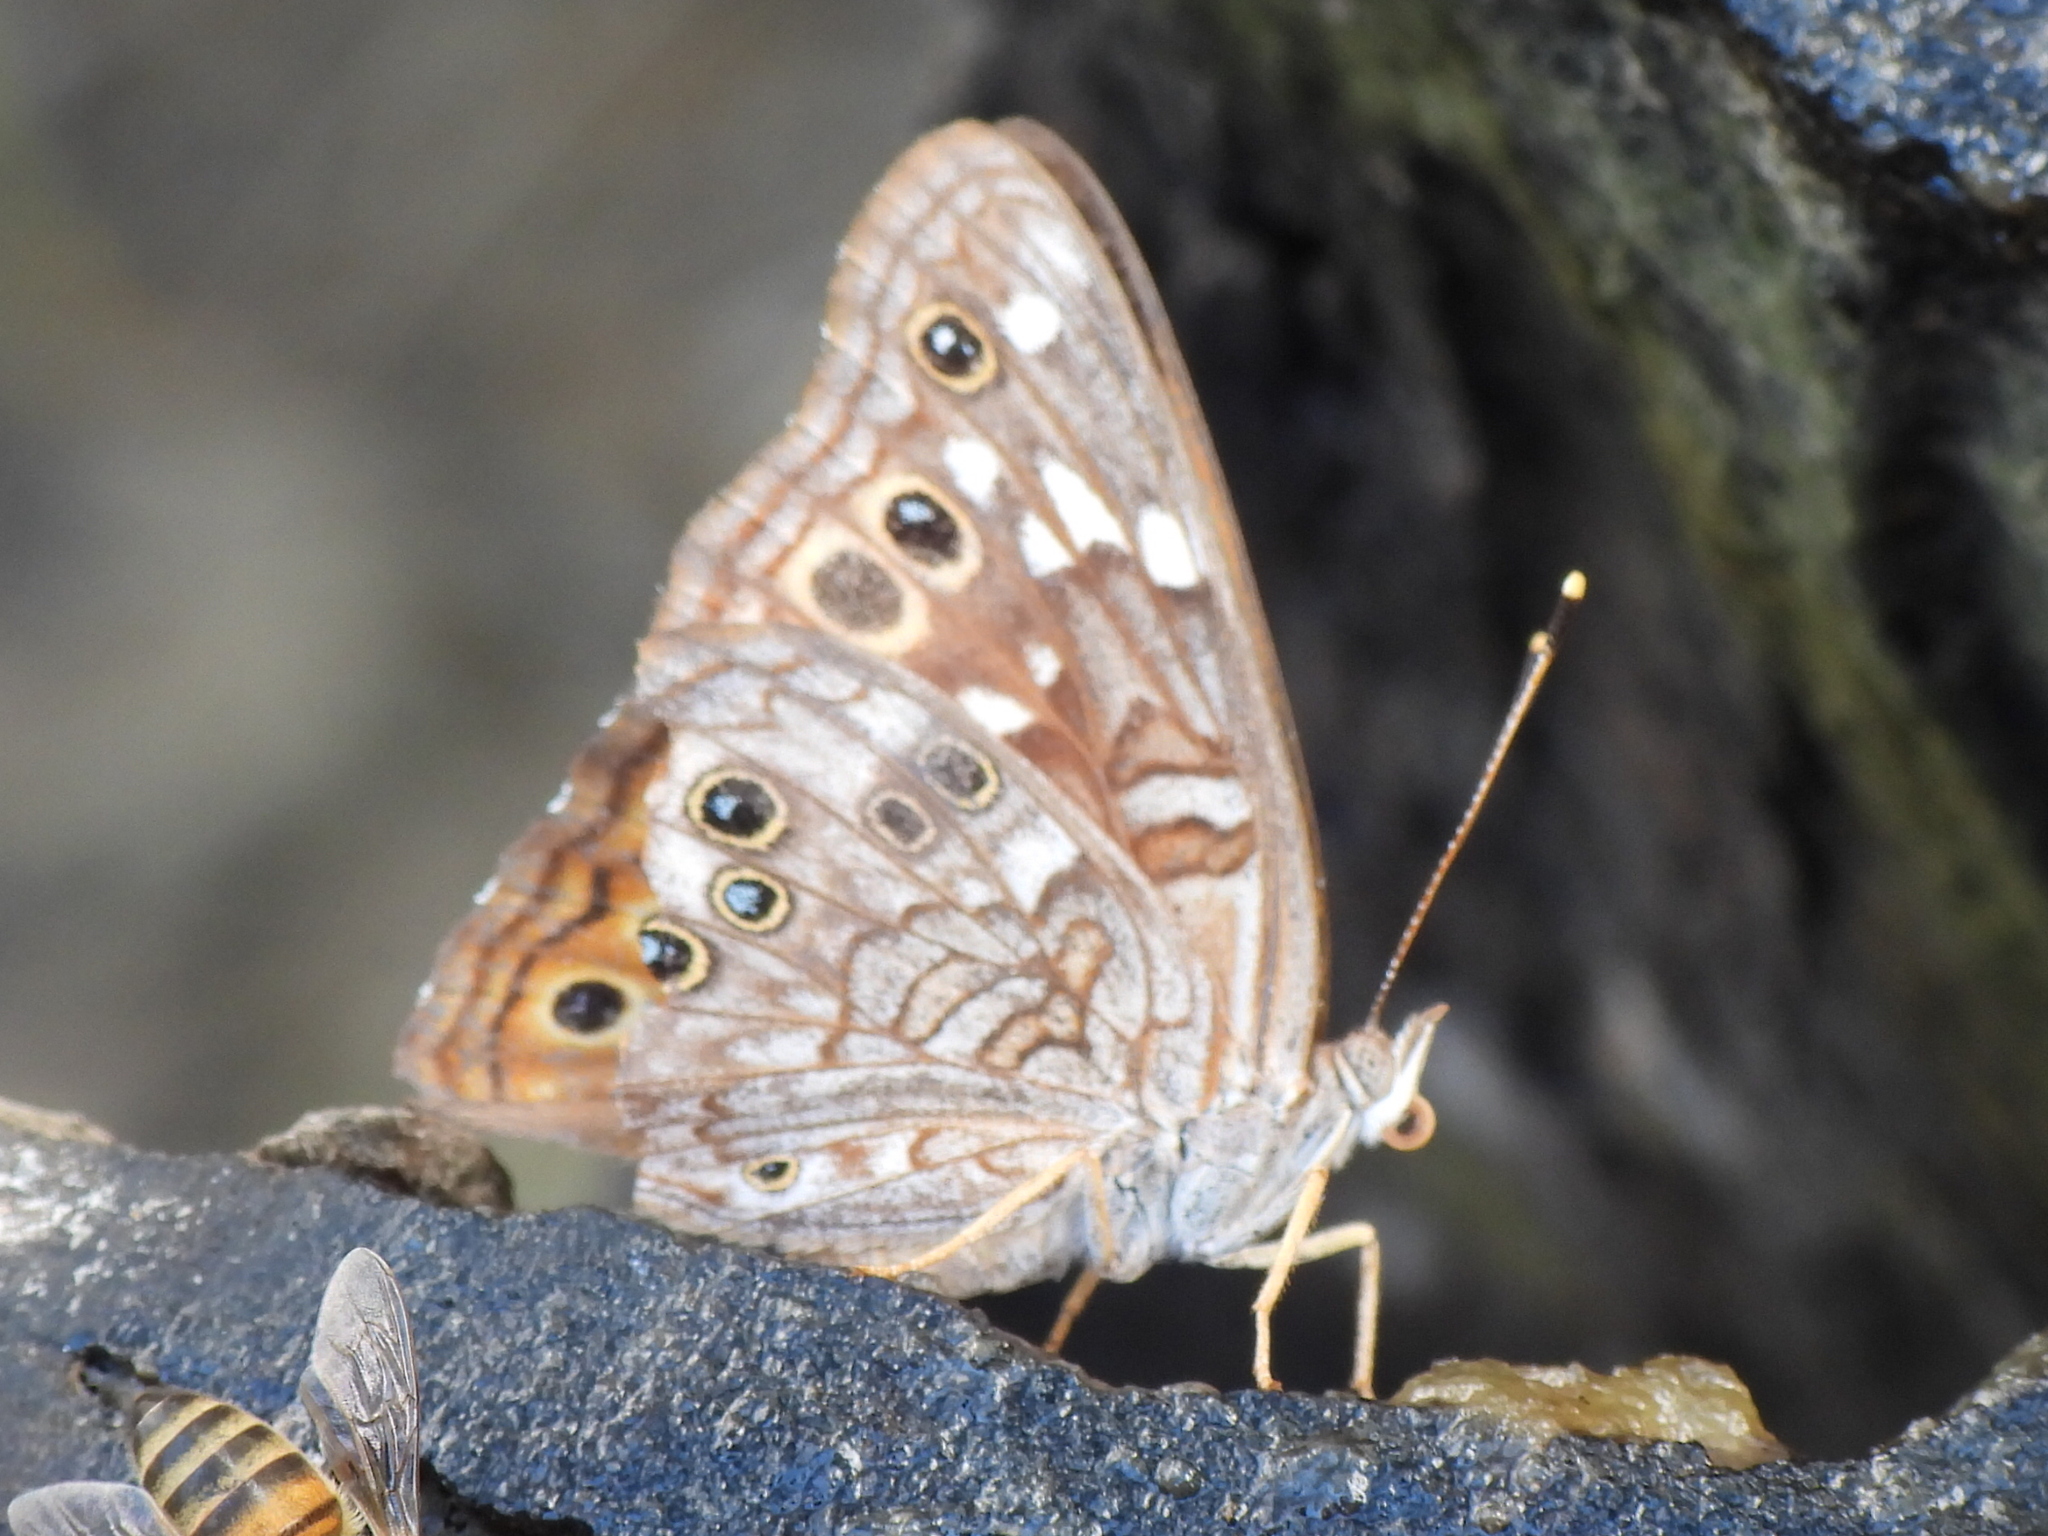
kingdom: Animalia
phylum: Arthropoda
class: Insecta
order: Lepidoptera
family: Nymphalidae
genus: Asterocampa
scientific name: Asterocampa leilia
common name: Empress leilia
